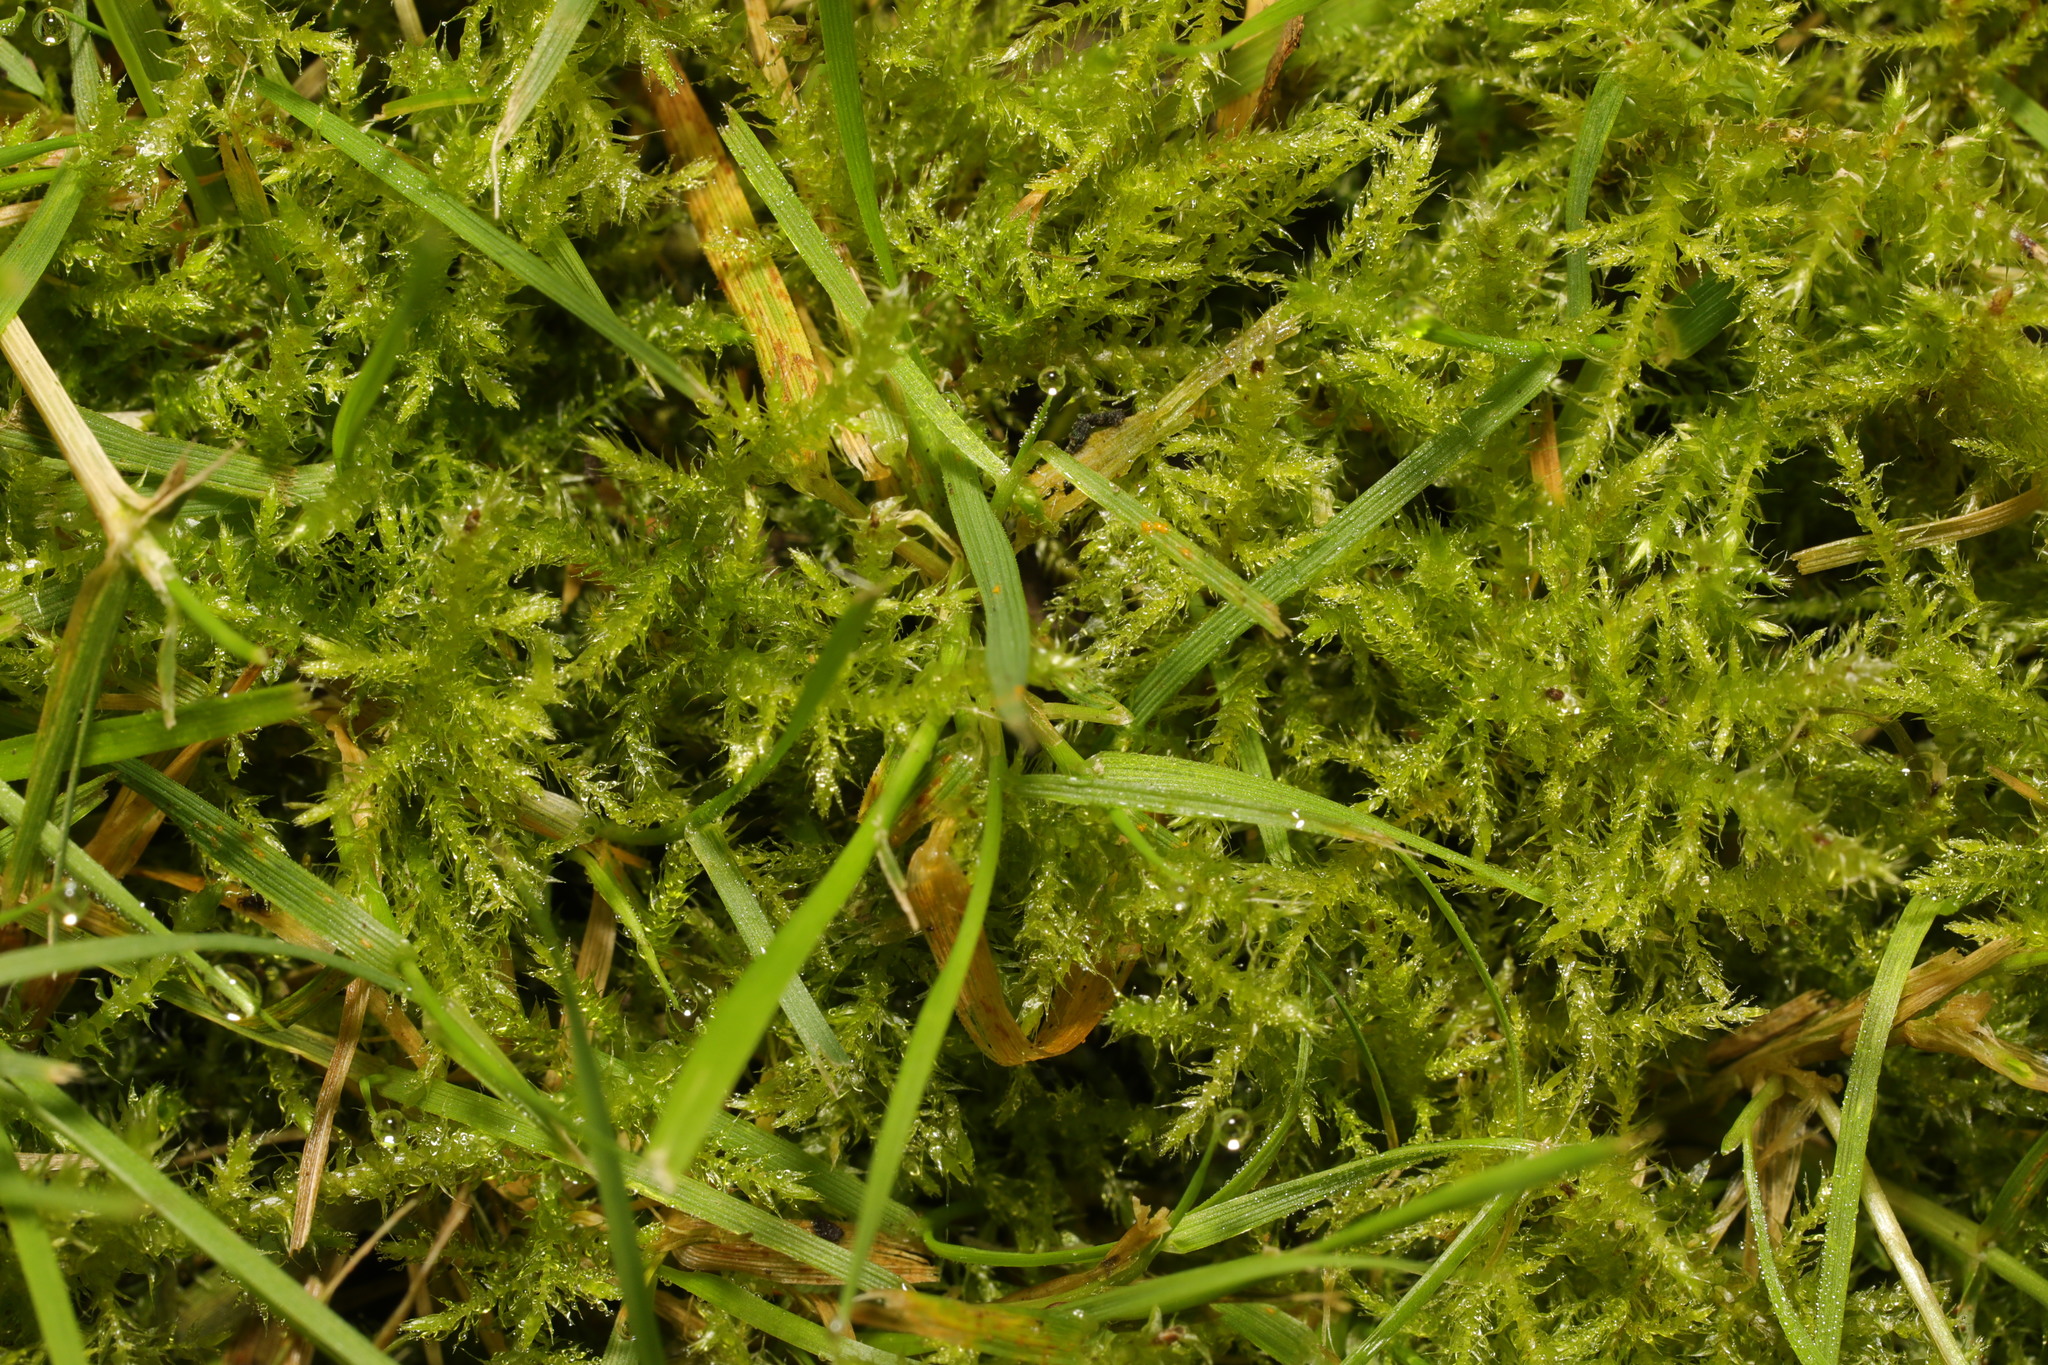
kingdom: Plantae
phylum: Bryophyta
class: Bryopsida
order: Hypnales
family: Hylocomiaceae
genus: Rhytidiadelphus
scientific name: Rhytidiadelphus squarrosus
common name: Springy turf-moss
